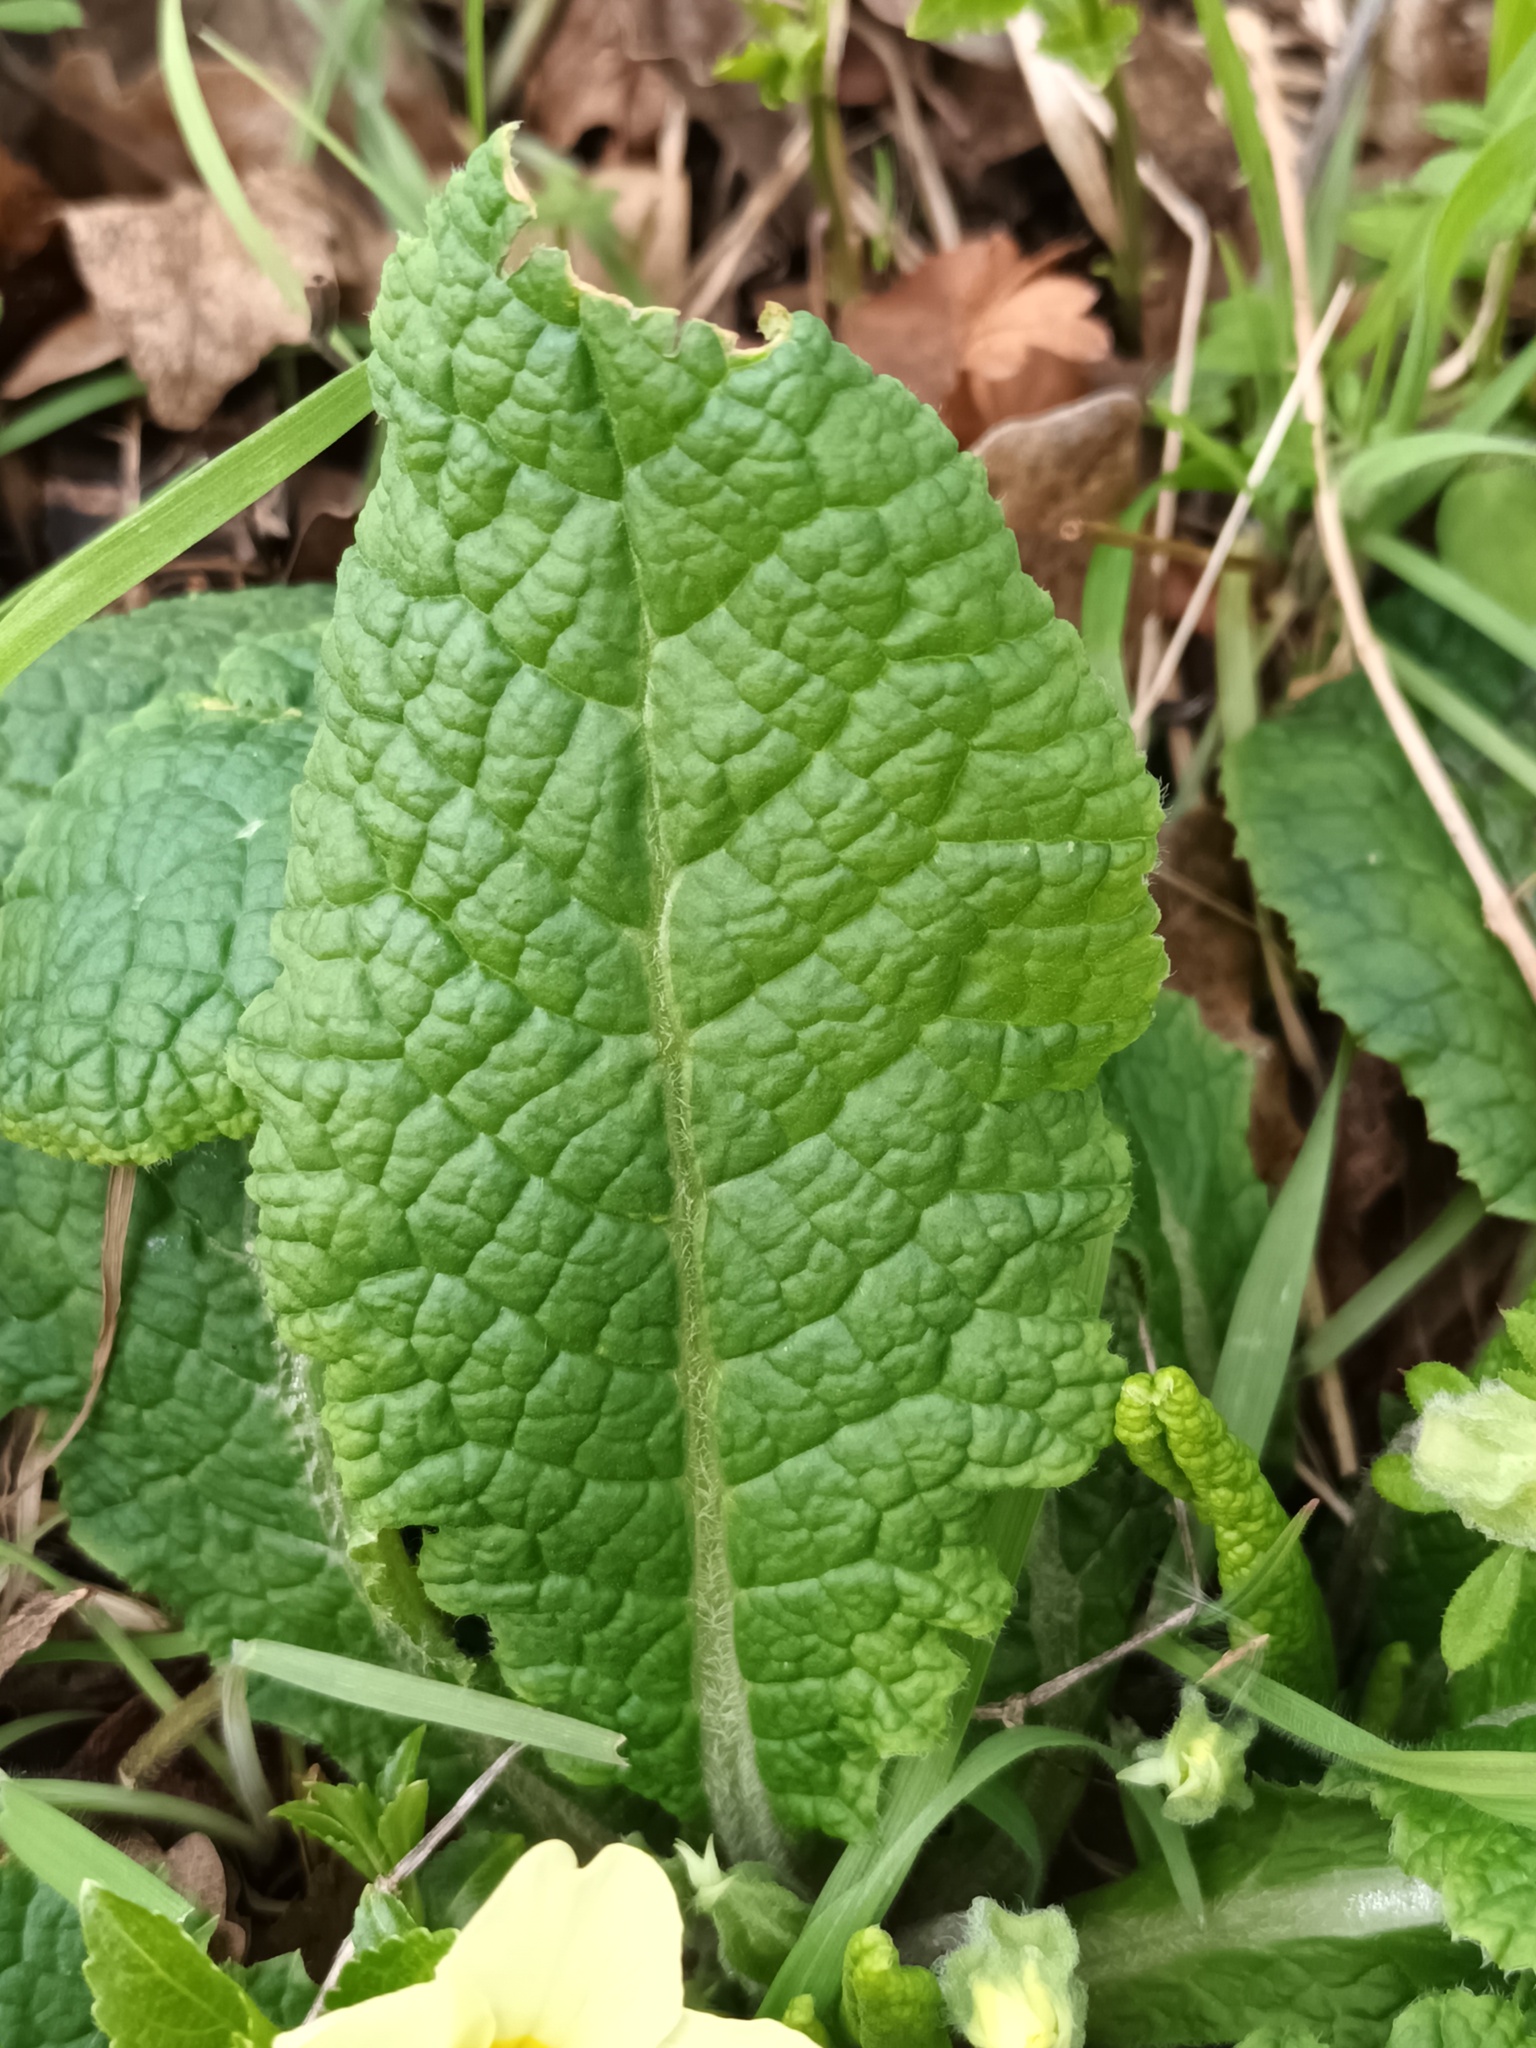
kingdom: Plantae
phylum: Tracheophyta
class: Magnoliopsida
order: Ericales
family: Primulaceae
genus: Primula
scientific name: Primula vulgaris
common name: Primrose
